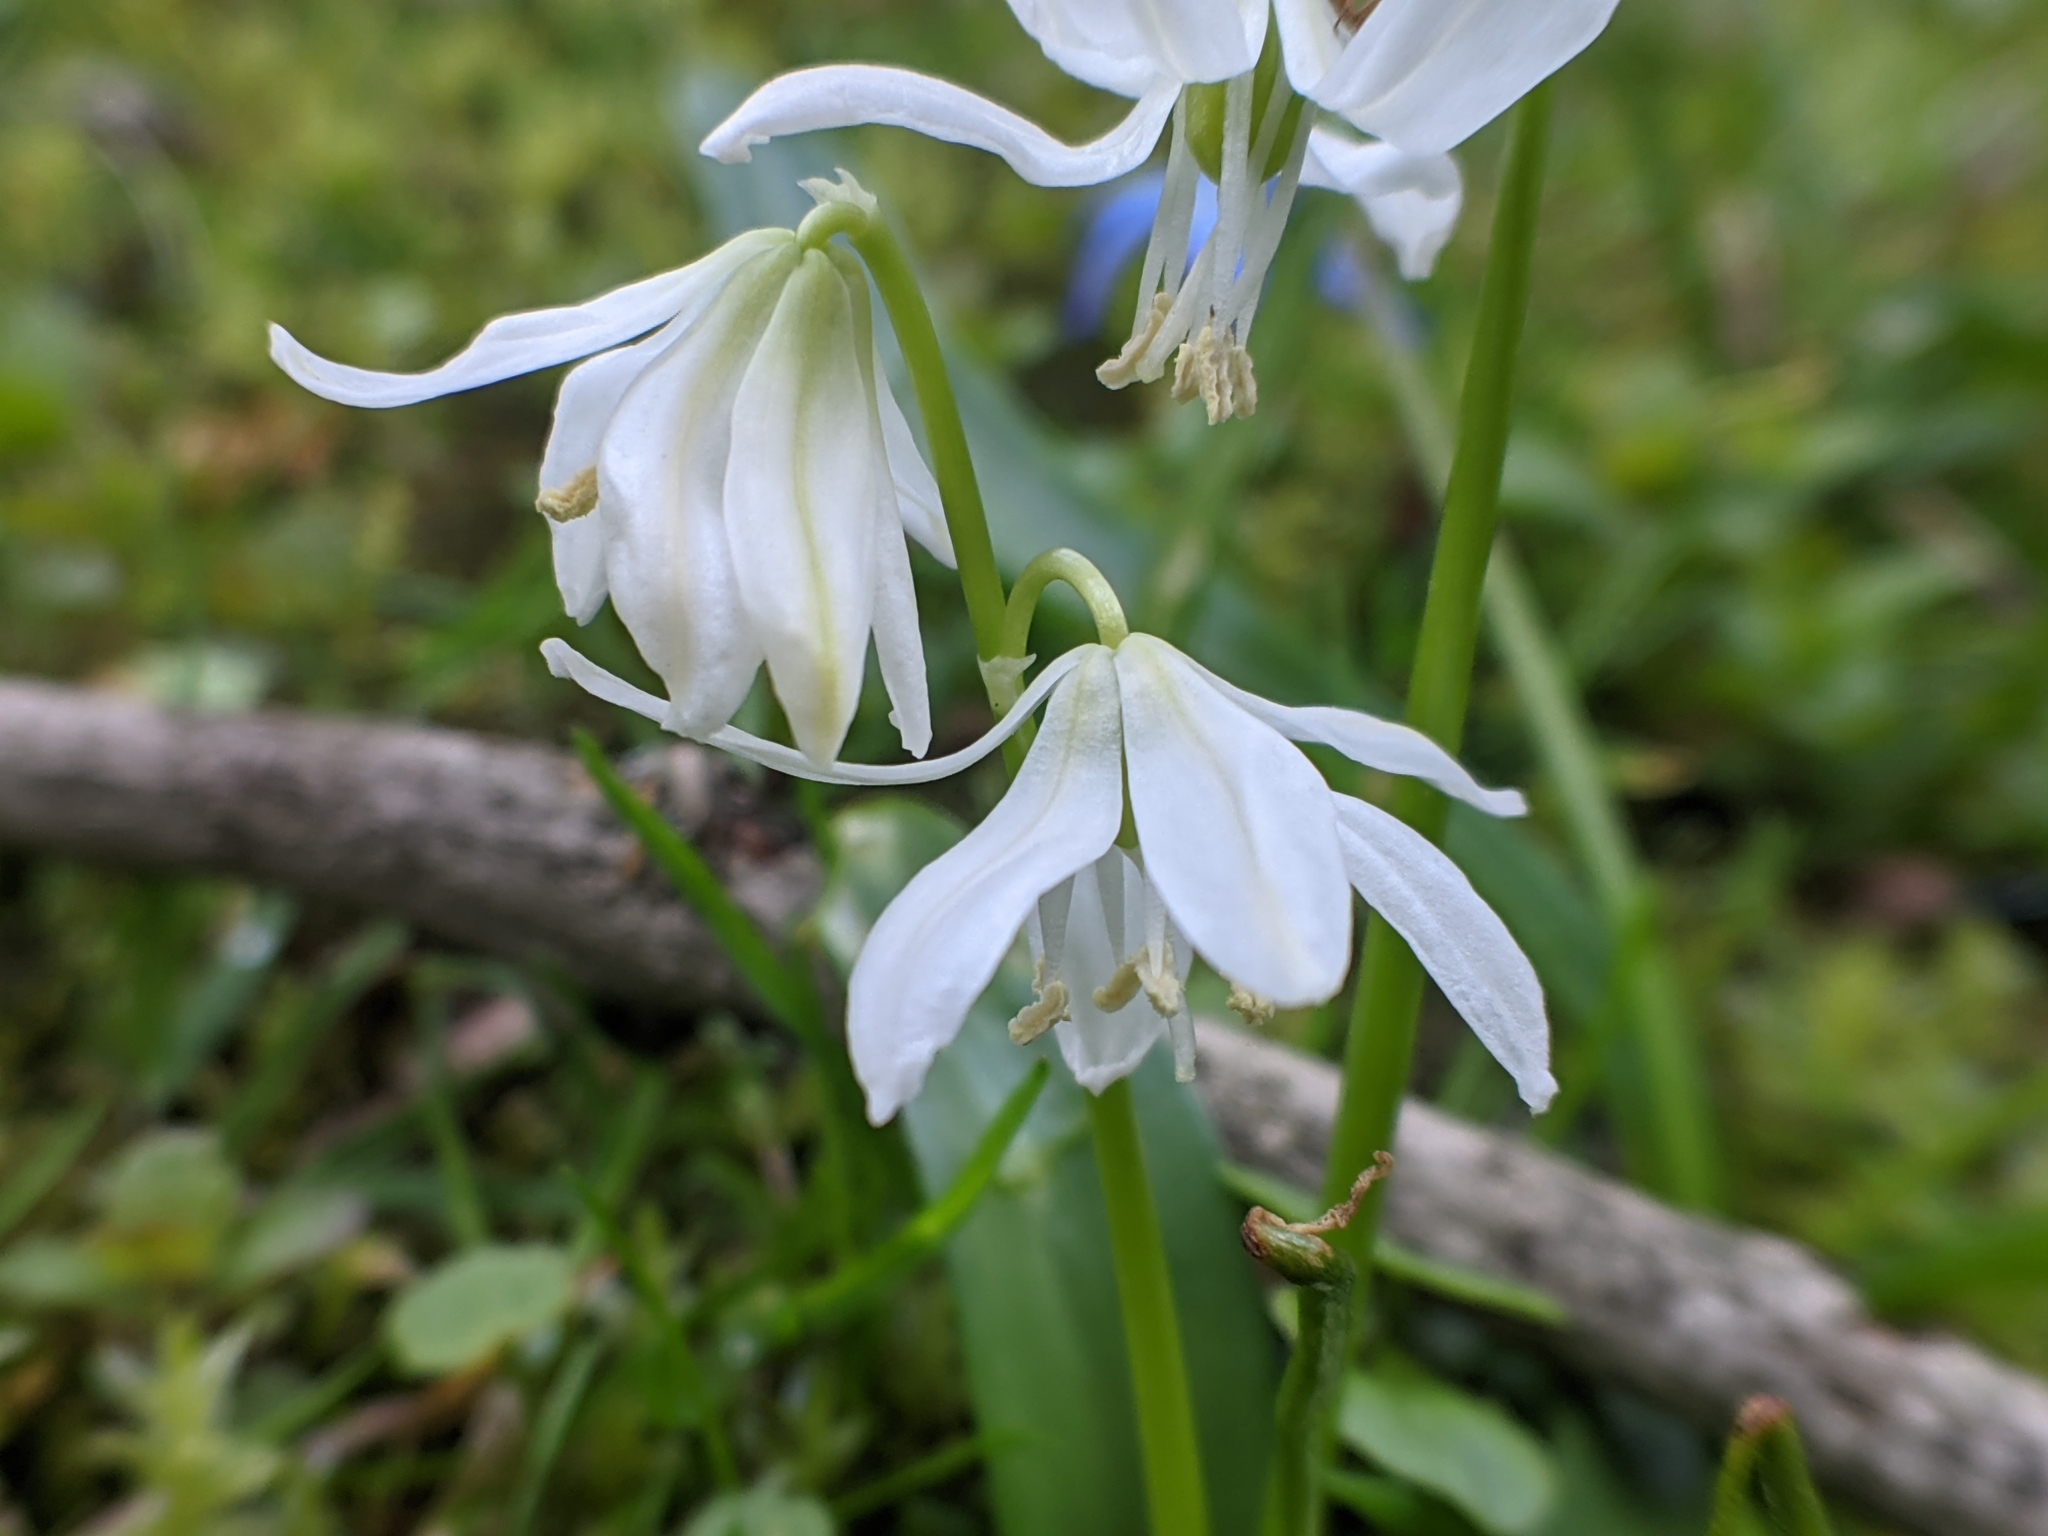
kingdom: Plantae
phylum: Tracheophyta
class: Liliopsida
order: Asparagales
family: Asparagaceae
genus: Scilla
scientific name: Scilla siberica
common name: Siberian squill
